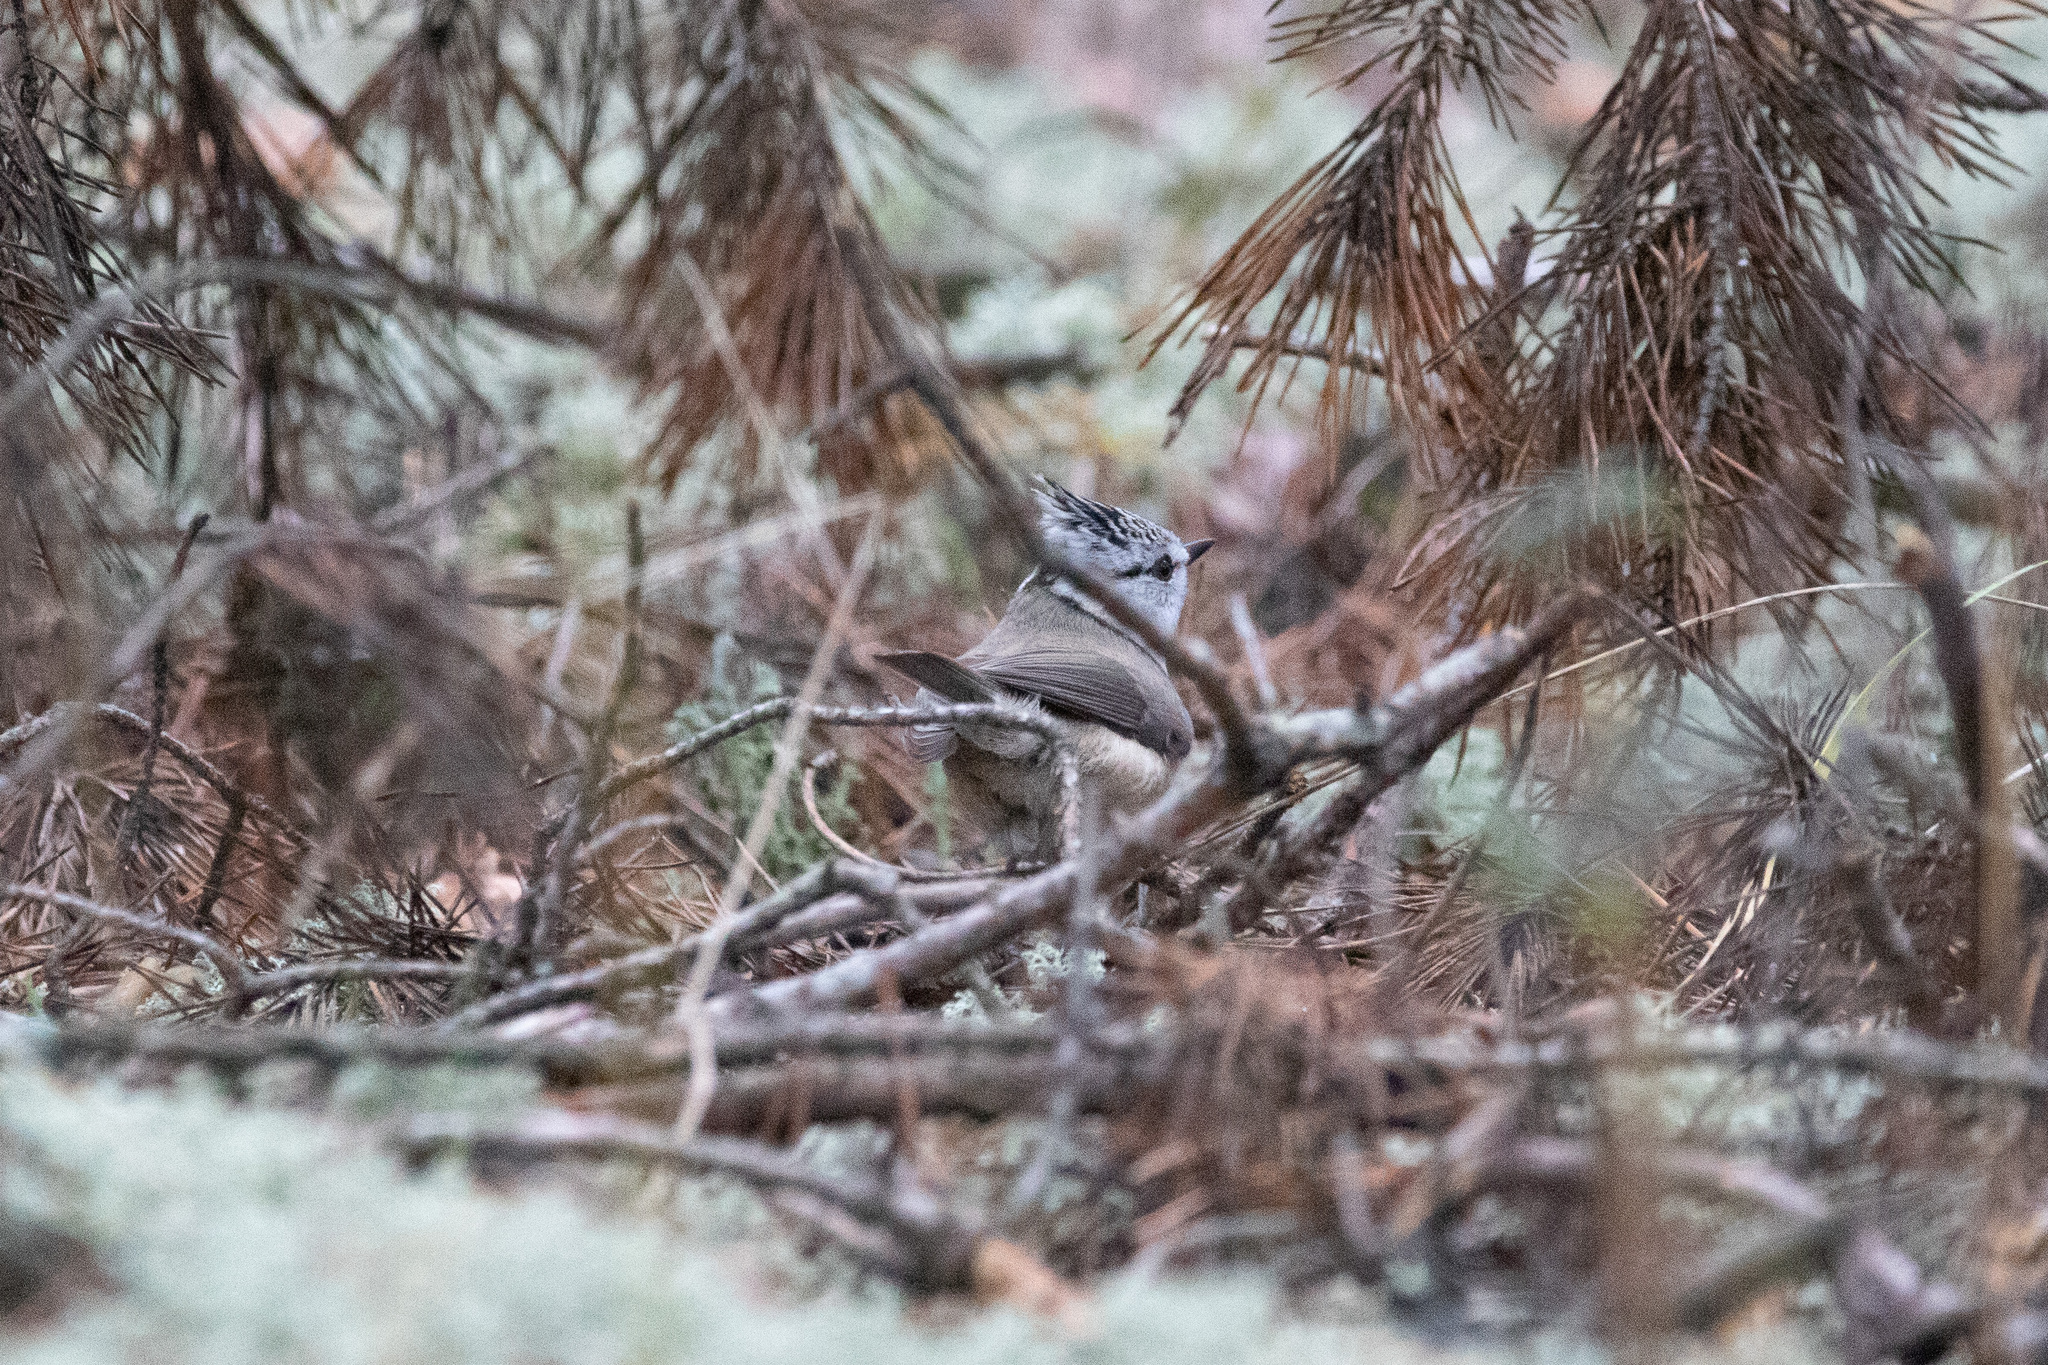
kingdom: Animalia
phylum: Chordata
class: Aves
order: Passeriformes
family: Paridae
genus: Lophophanes
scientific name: Lophophanes cristatus
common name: European crested tit
